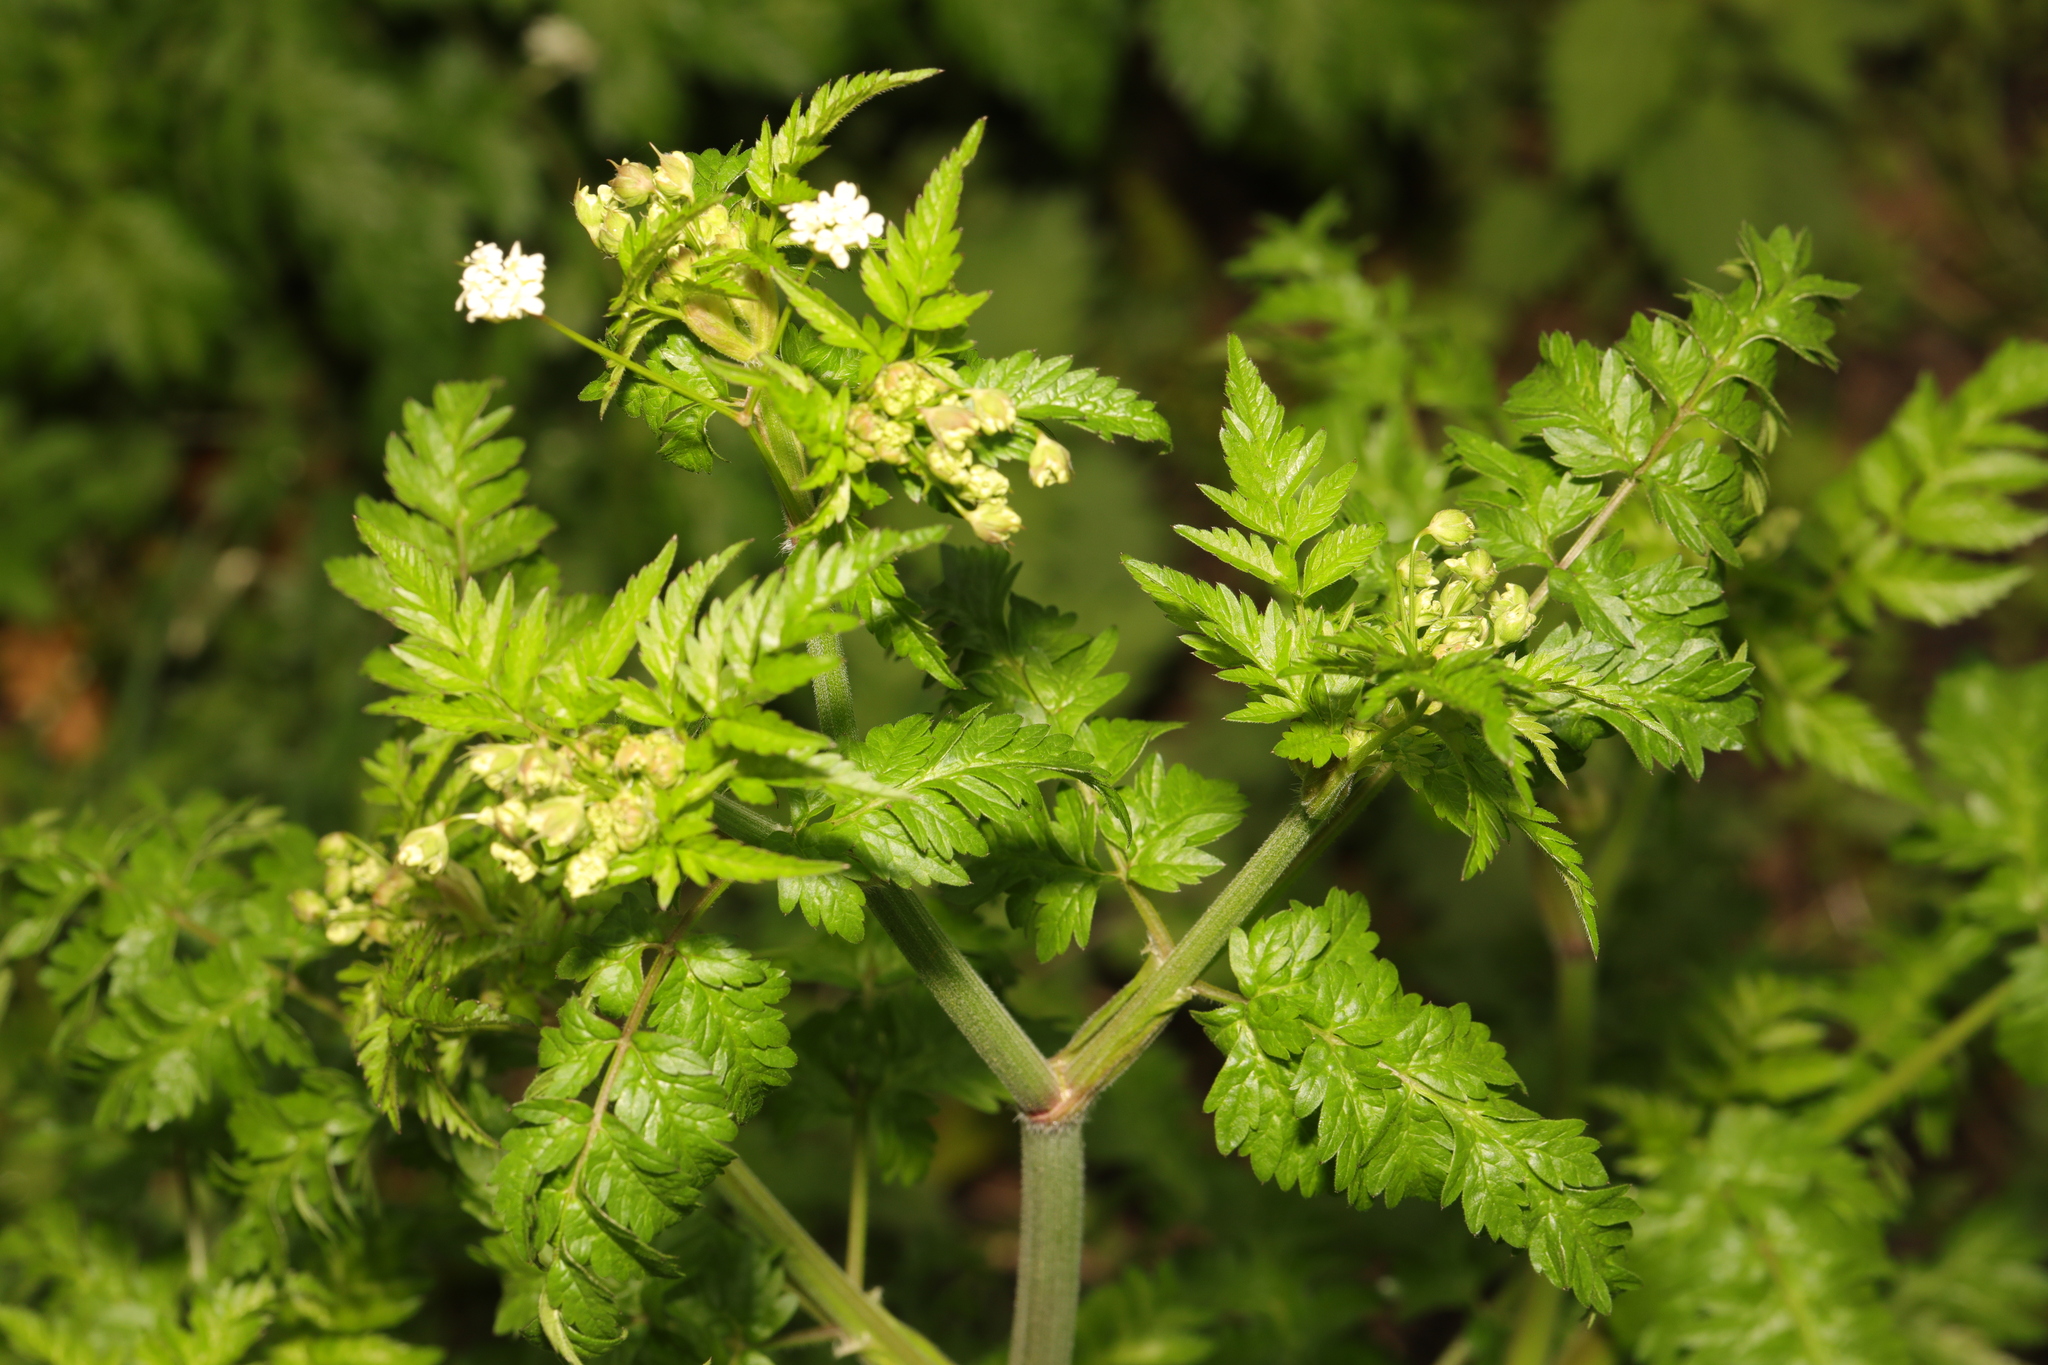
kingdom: Plantae
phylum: Tracheophyta
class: Magnoliopsida
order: Apiales
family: Apiaceae
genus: Anthriscus
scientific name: Anthriscus sylvestris
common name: Cow parsley
